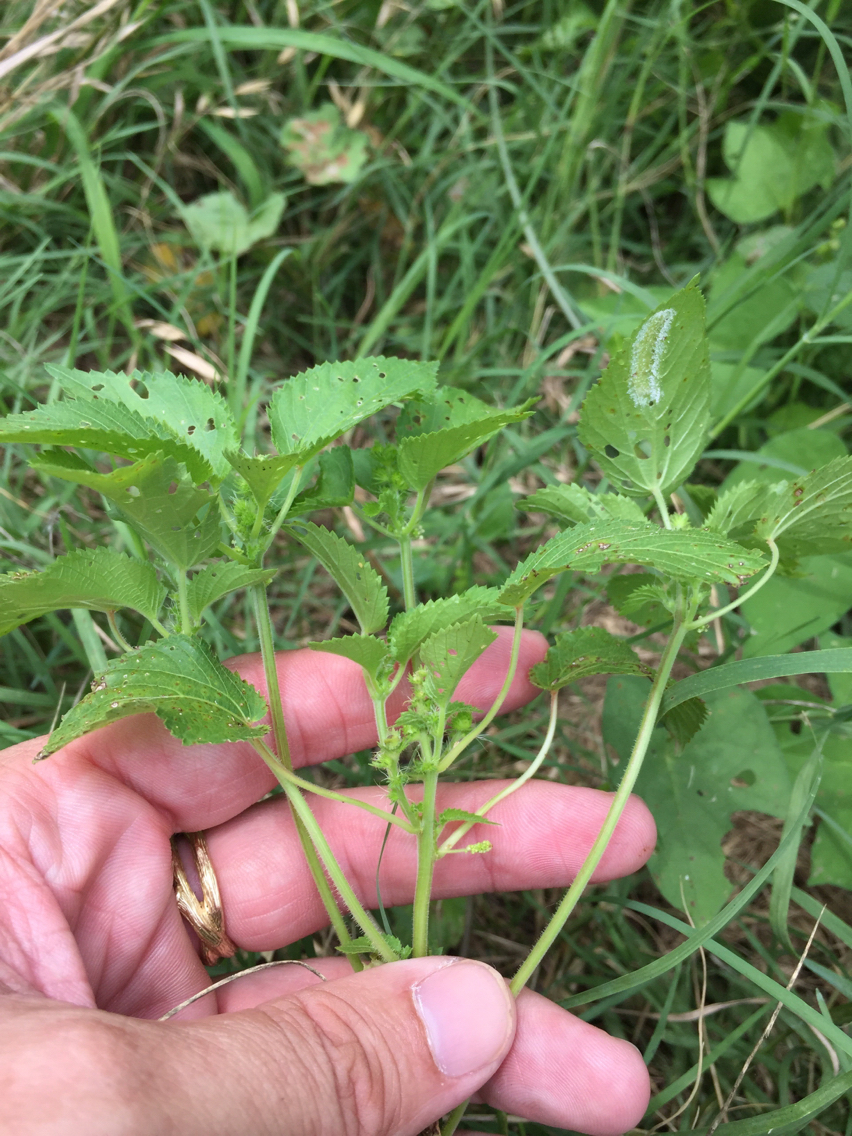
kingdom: Plantae
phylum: Tracheophyta
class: Magnoliopsida
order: Malpighiales
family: Euphorbiaceae
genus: Acalypha
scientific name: Acalypha ostryifolia
